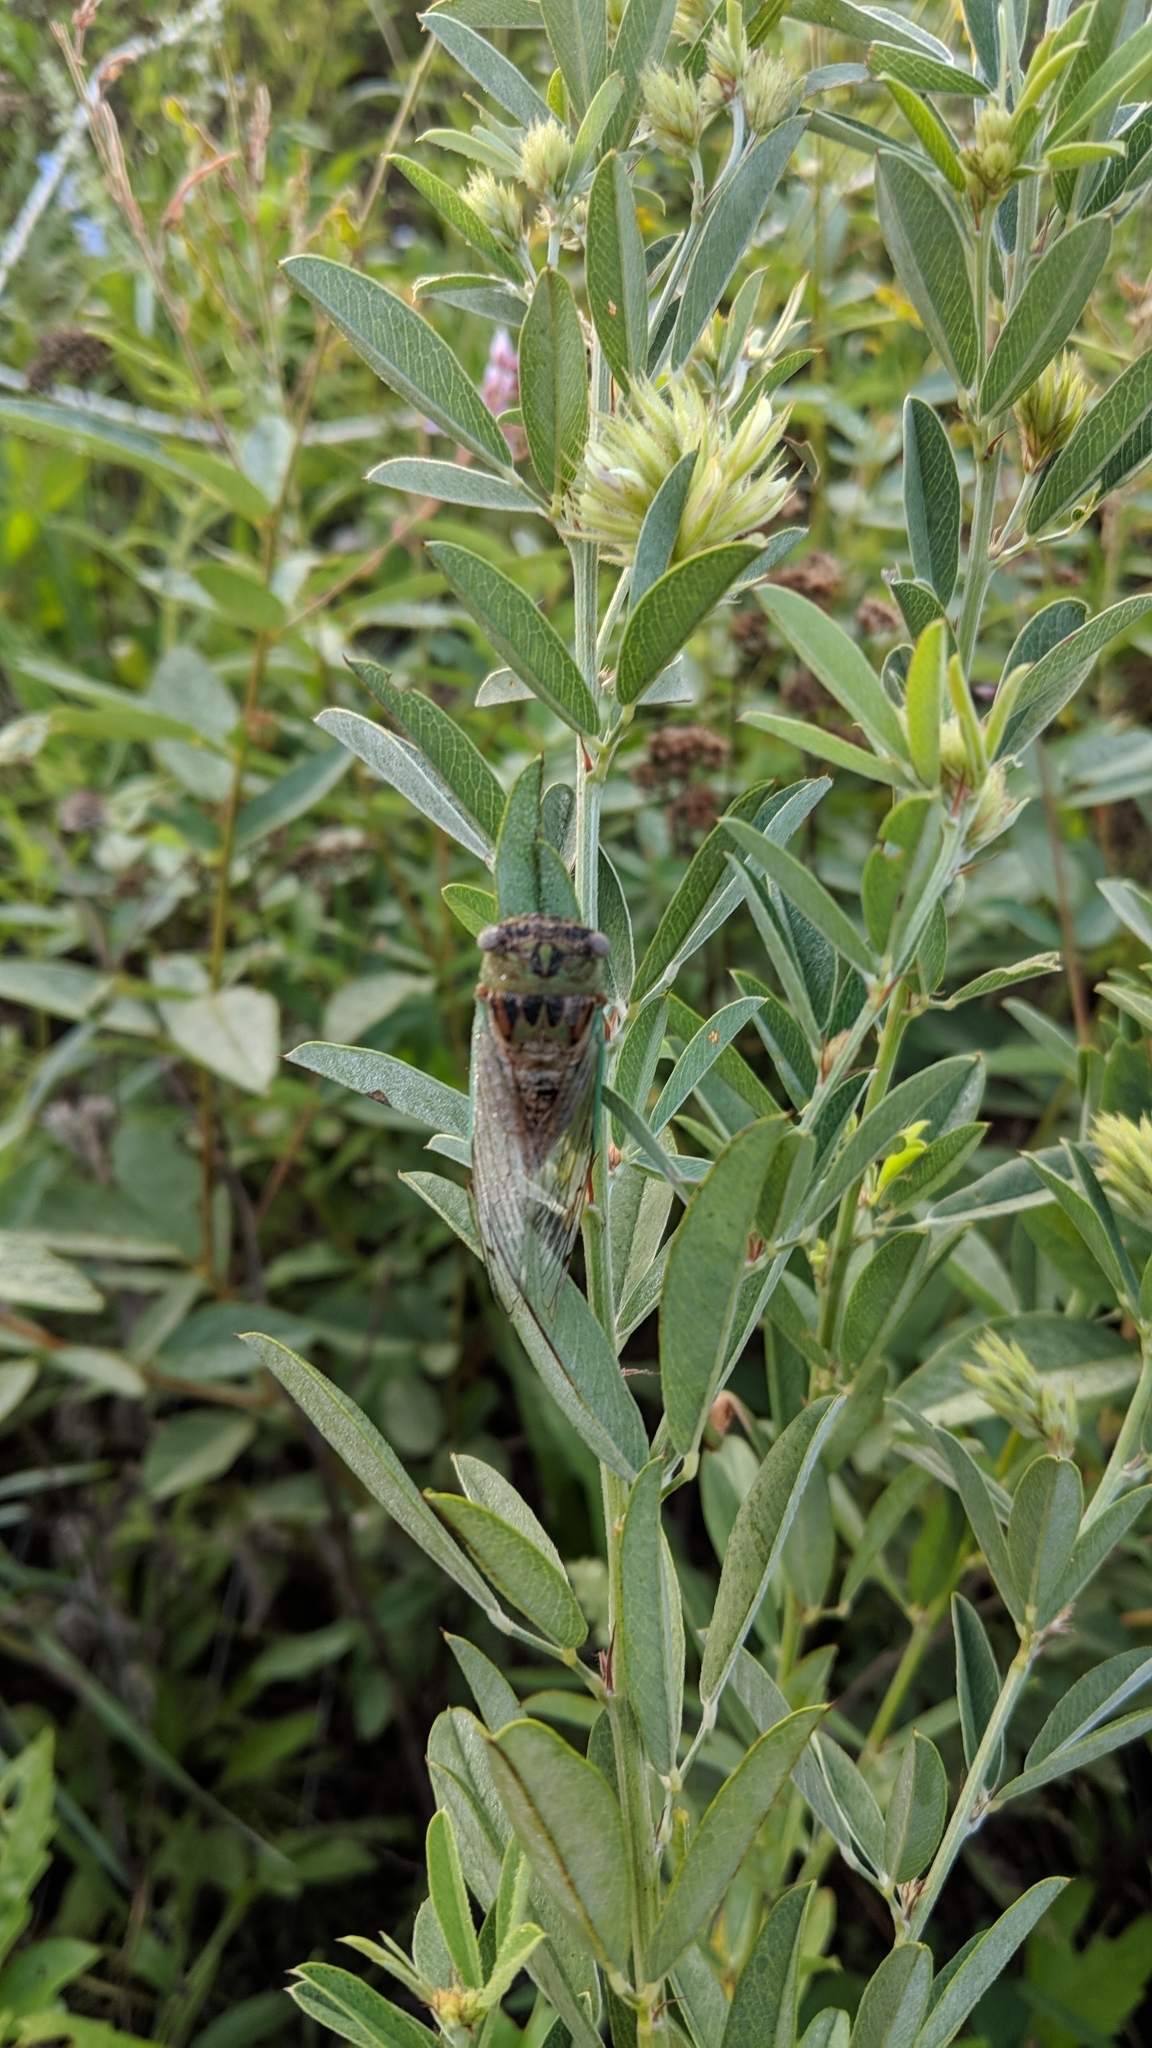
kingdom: Animalia
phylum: Arthropoda
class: Insecta
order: Hemiptera
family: Cicadidae
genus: Neotibicen
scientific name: Neotibicen aurifer
